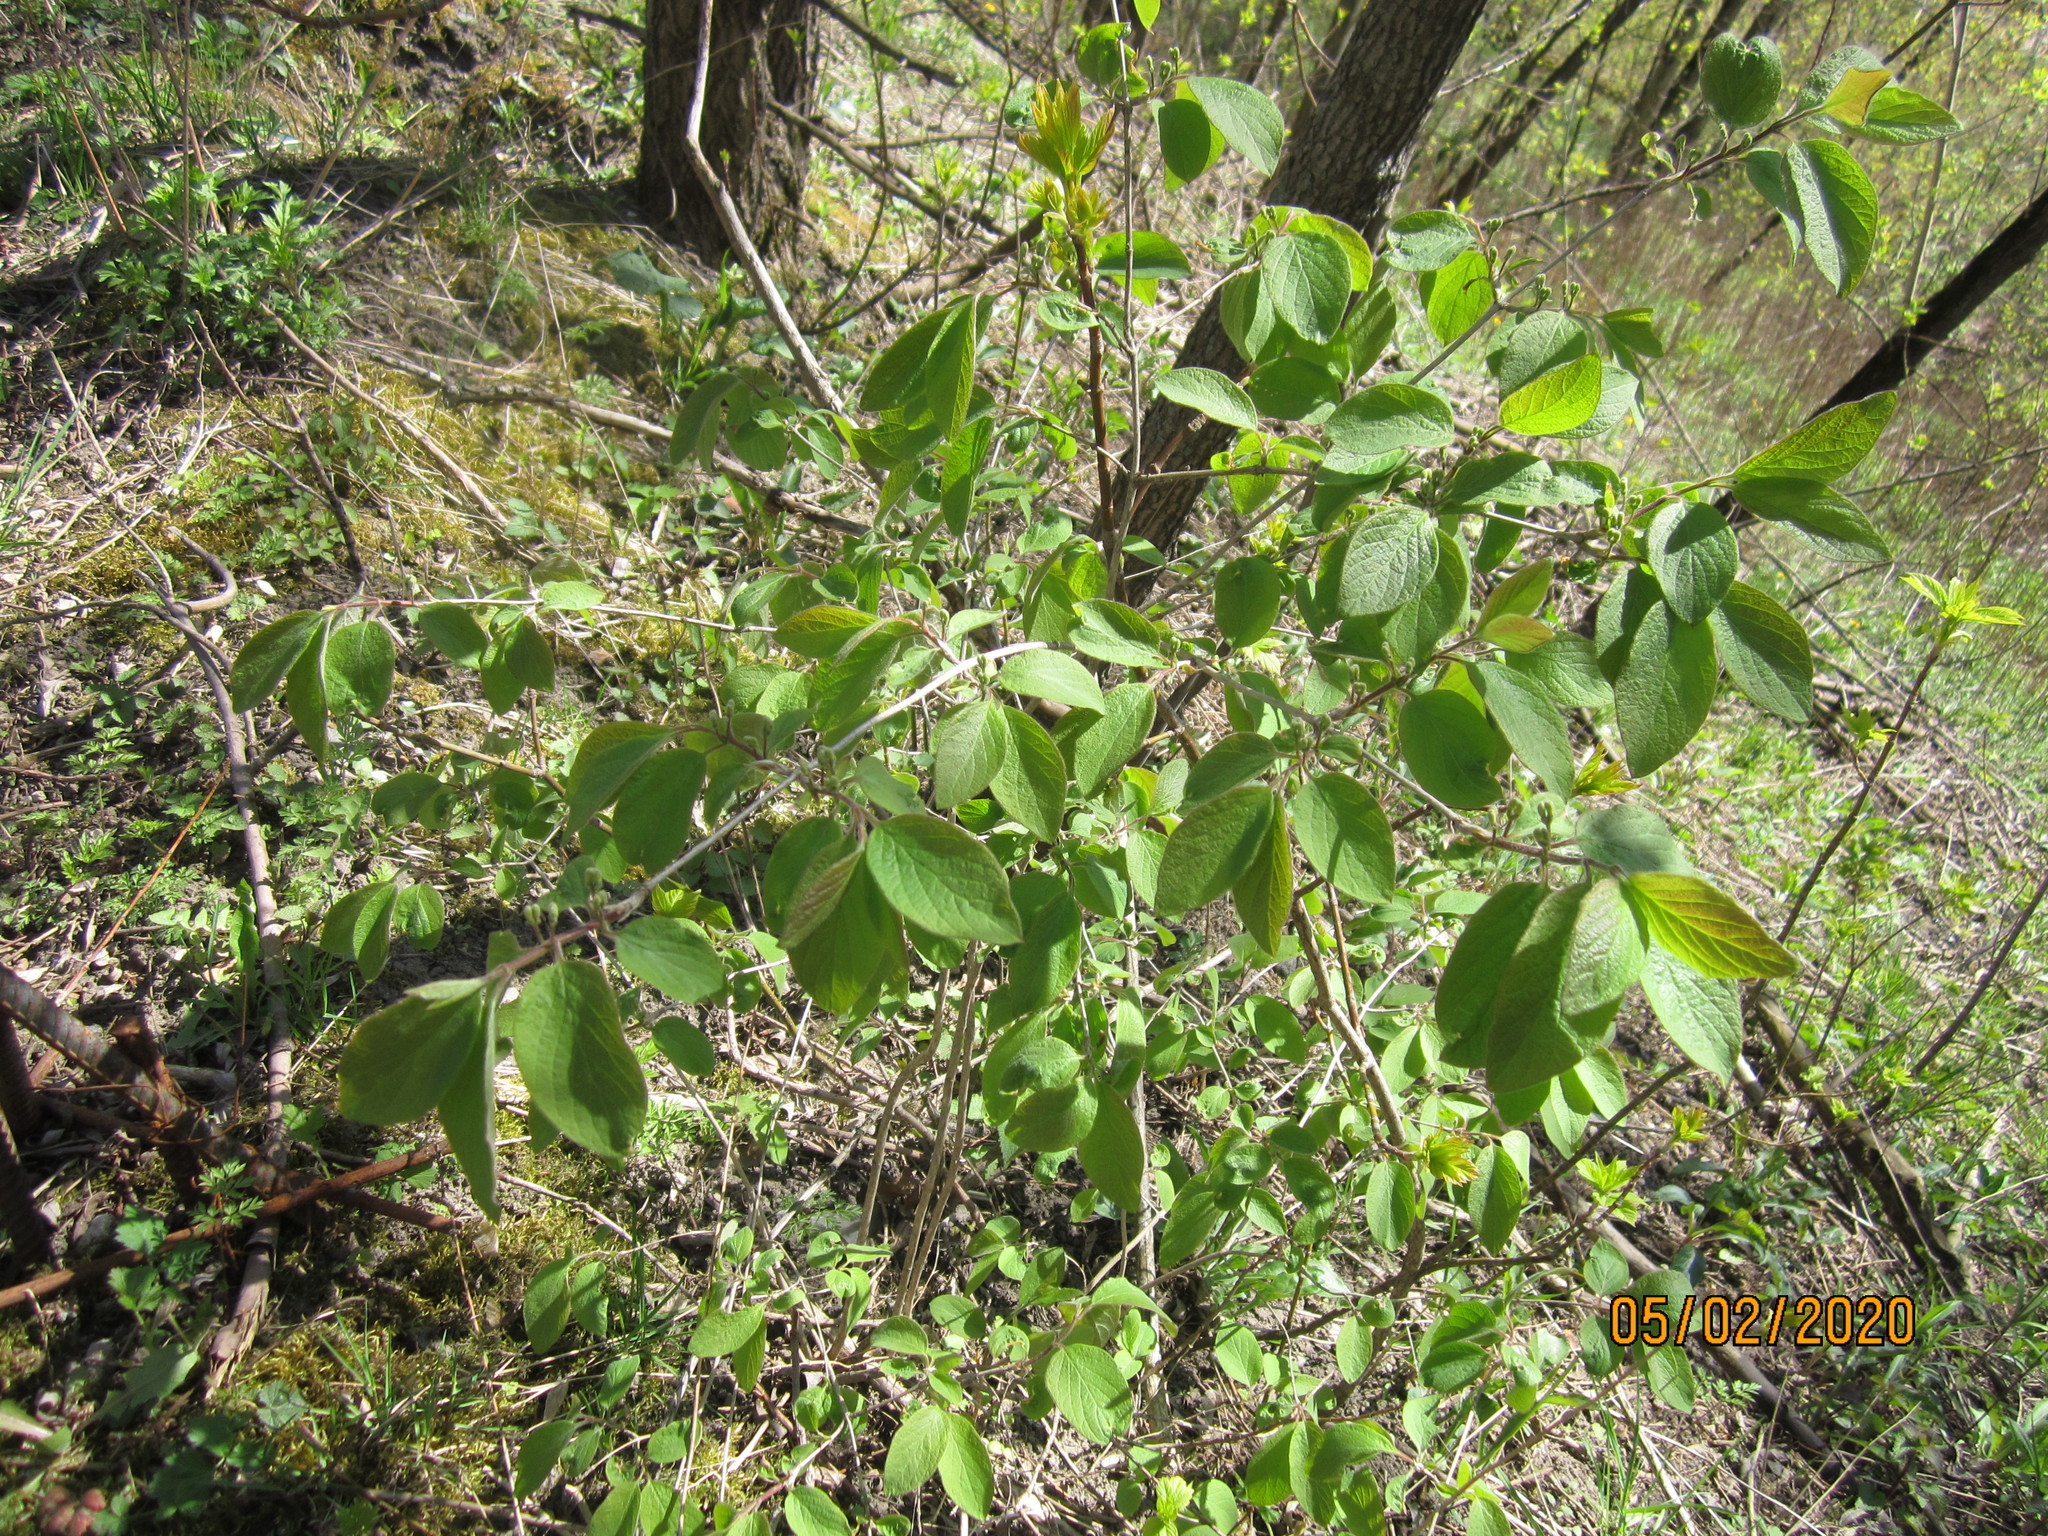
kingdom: Plantae
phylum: Tracheophyta
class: Magnoliopsida
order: Dipsacales
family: Caprifoliaceae
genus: Lonicera
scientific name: Lonicera xylosteum
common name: Fly honeysuckle
